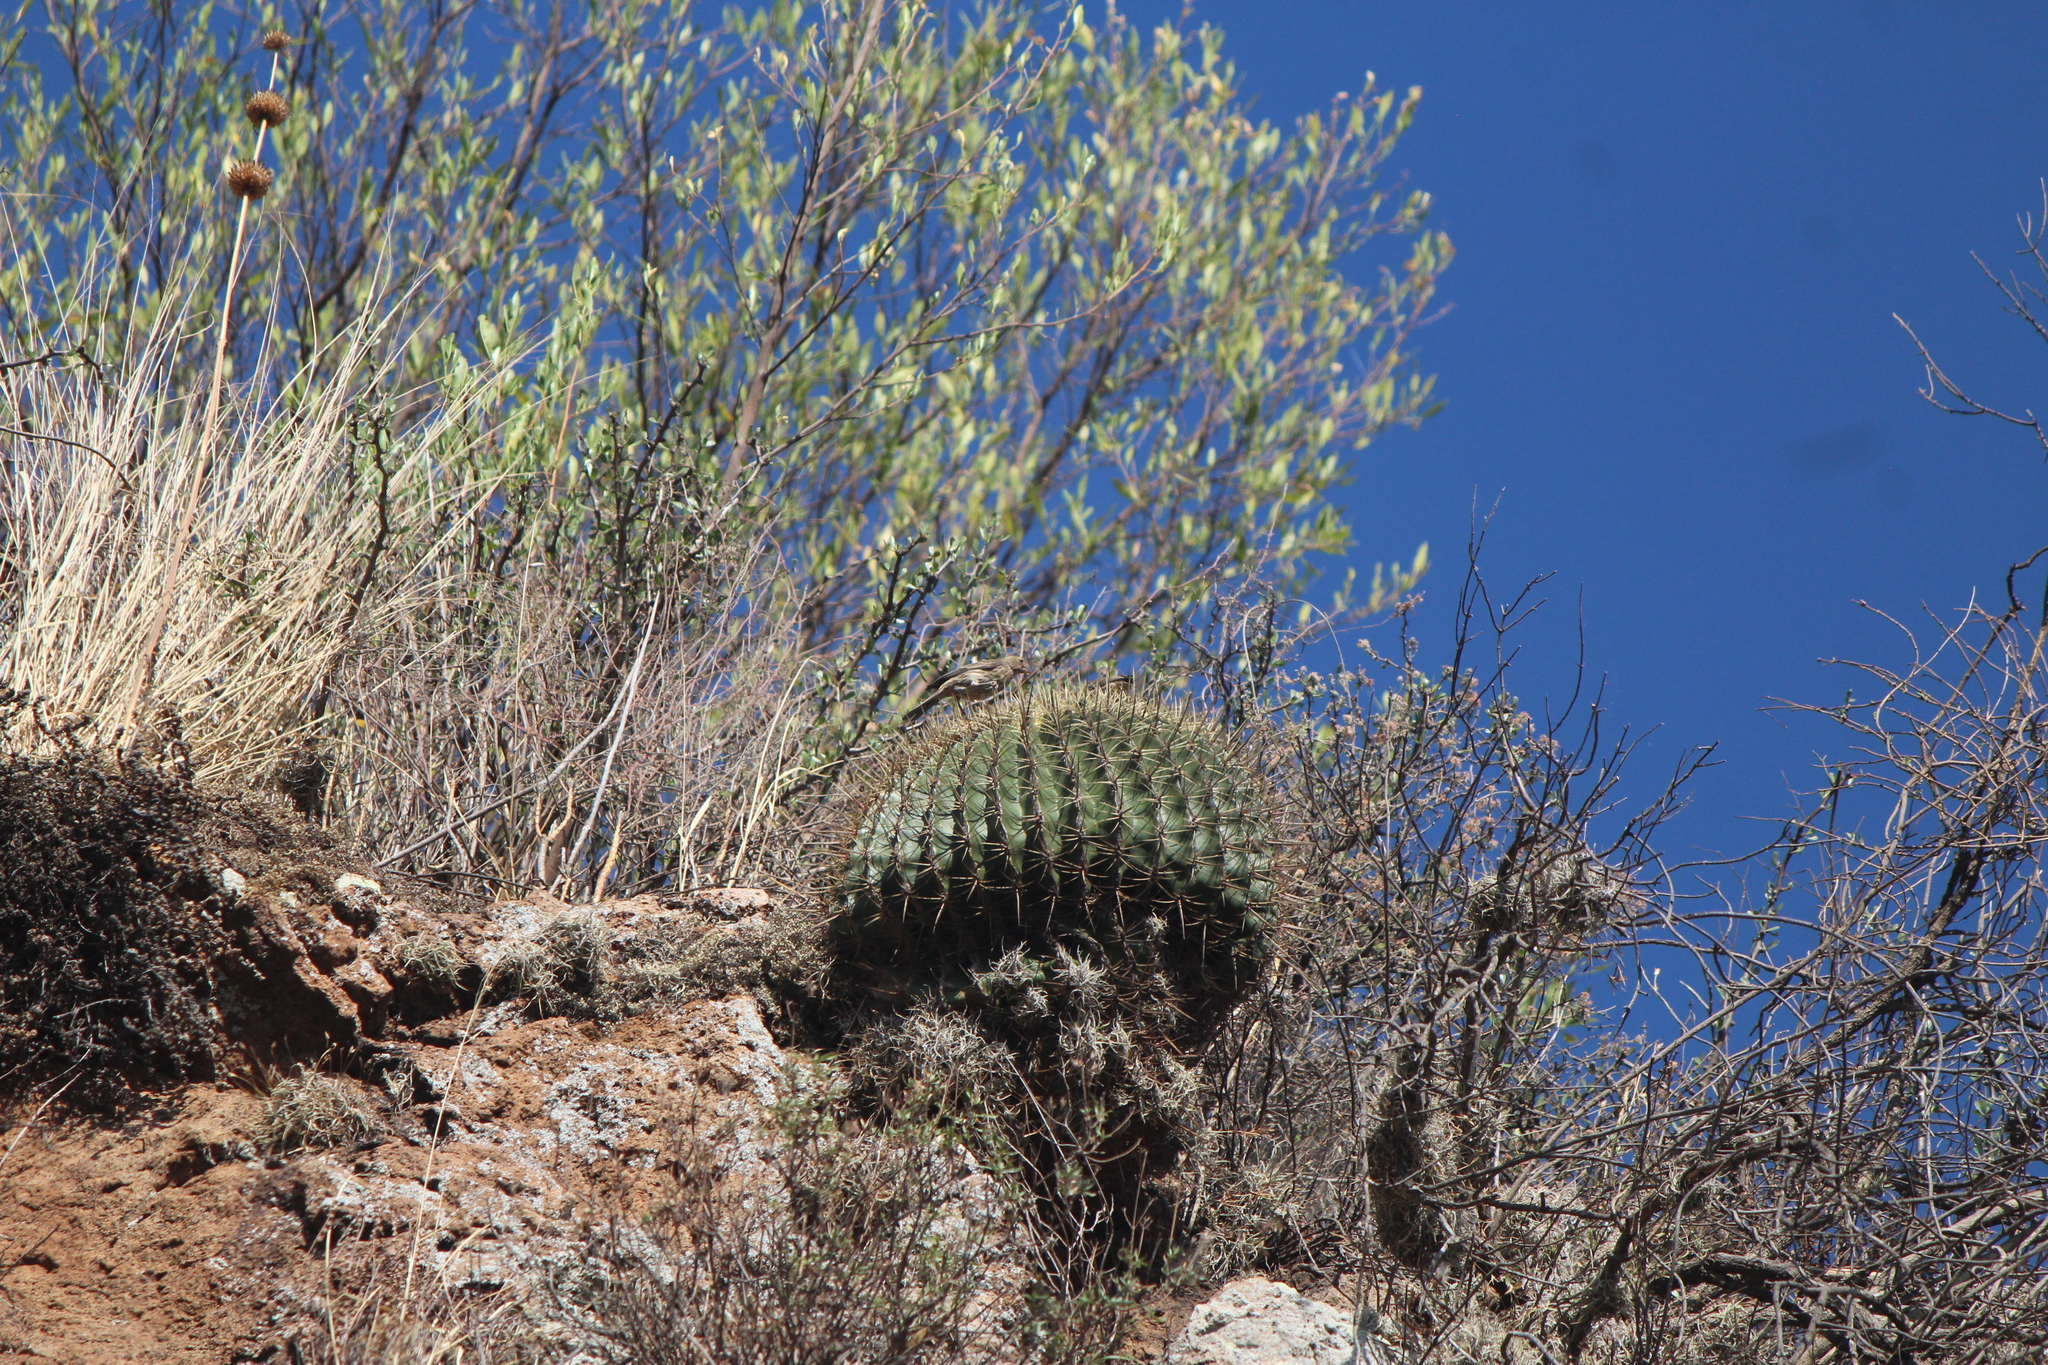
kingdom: Animalia
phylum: Chordata
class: Aves
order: Passeriformes
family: Fringillidae
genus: Haemorhous
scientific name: Haemorhous mexicanus
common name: House finch
